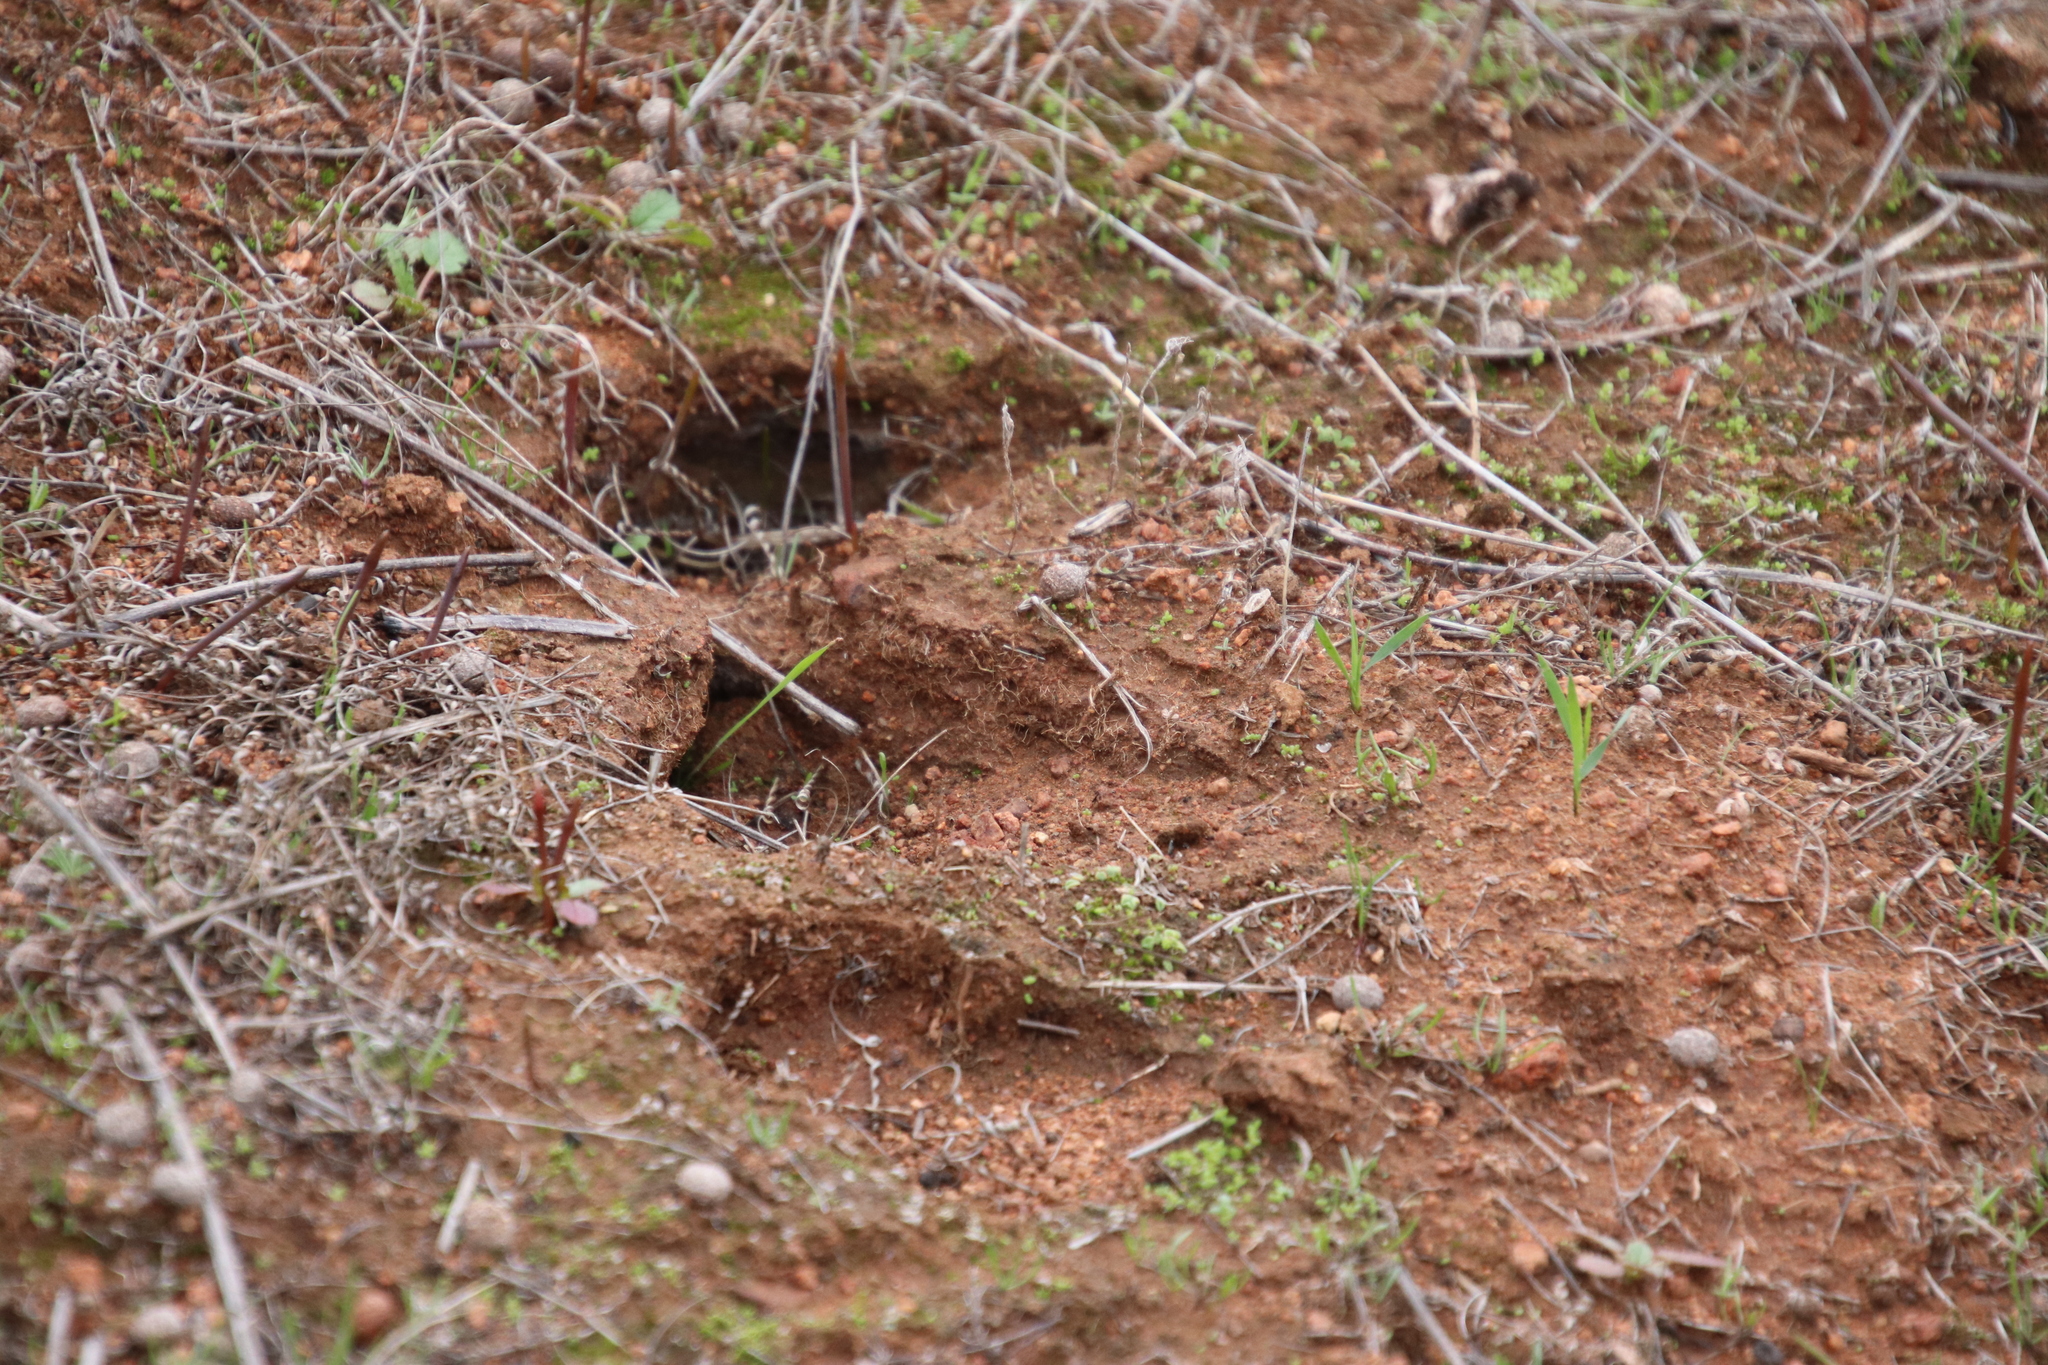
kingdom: Animalia
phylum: Chordata
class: Mammalia
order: Artiodactyla
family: Cervidae
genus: Odocoileus
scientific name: Odocoileus hemionus
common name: Mule deer
